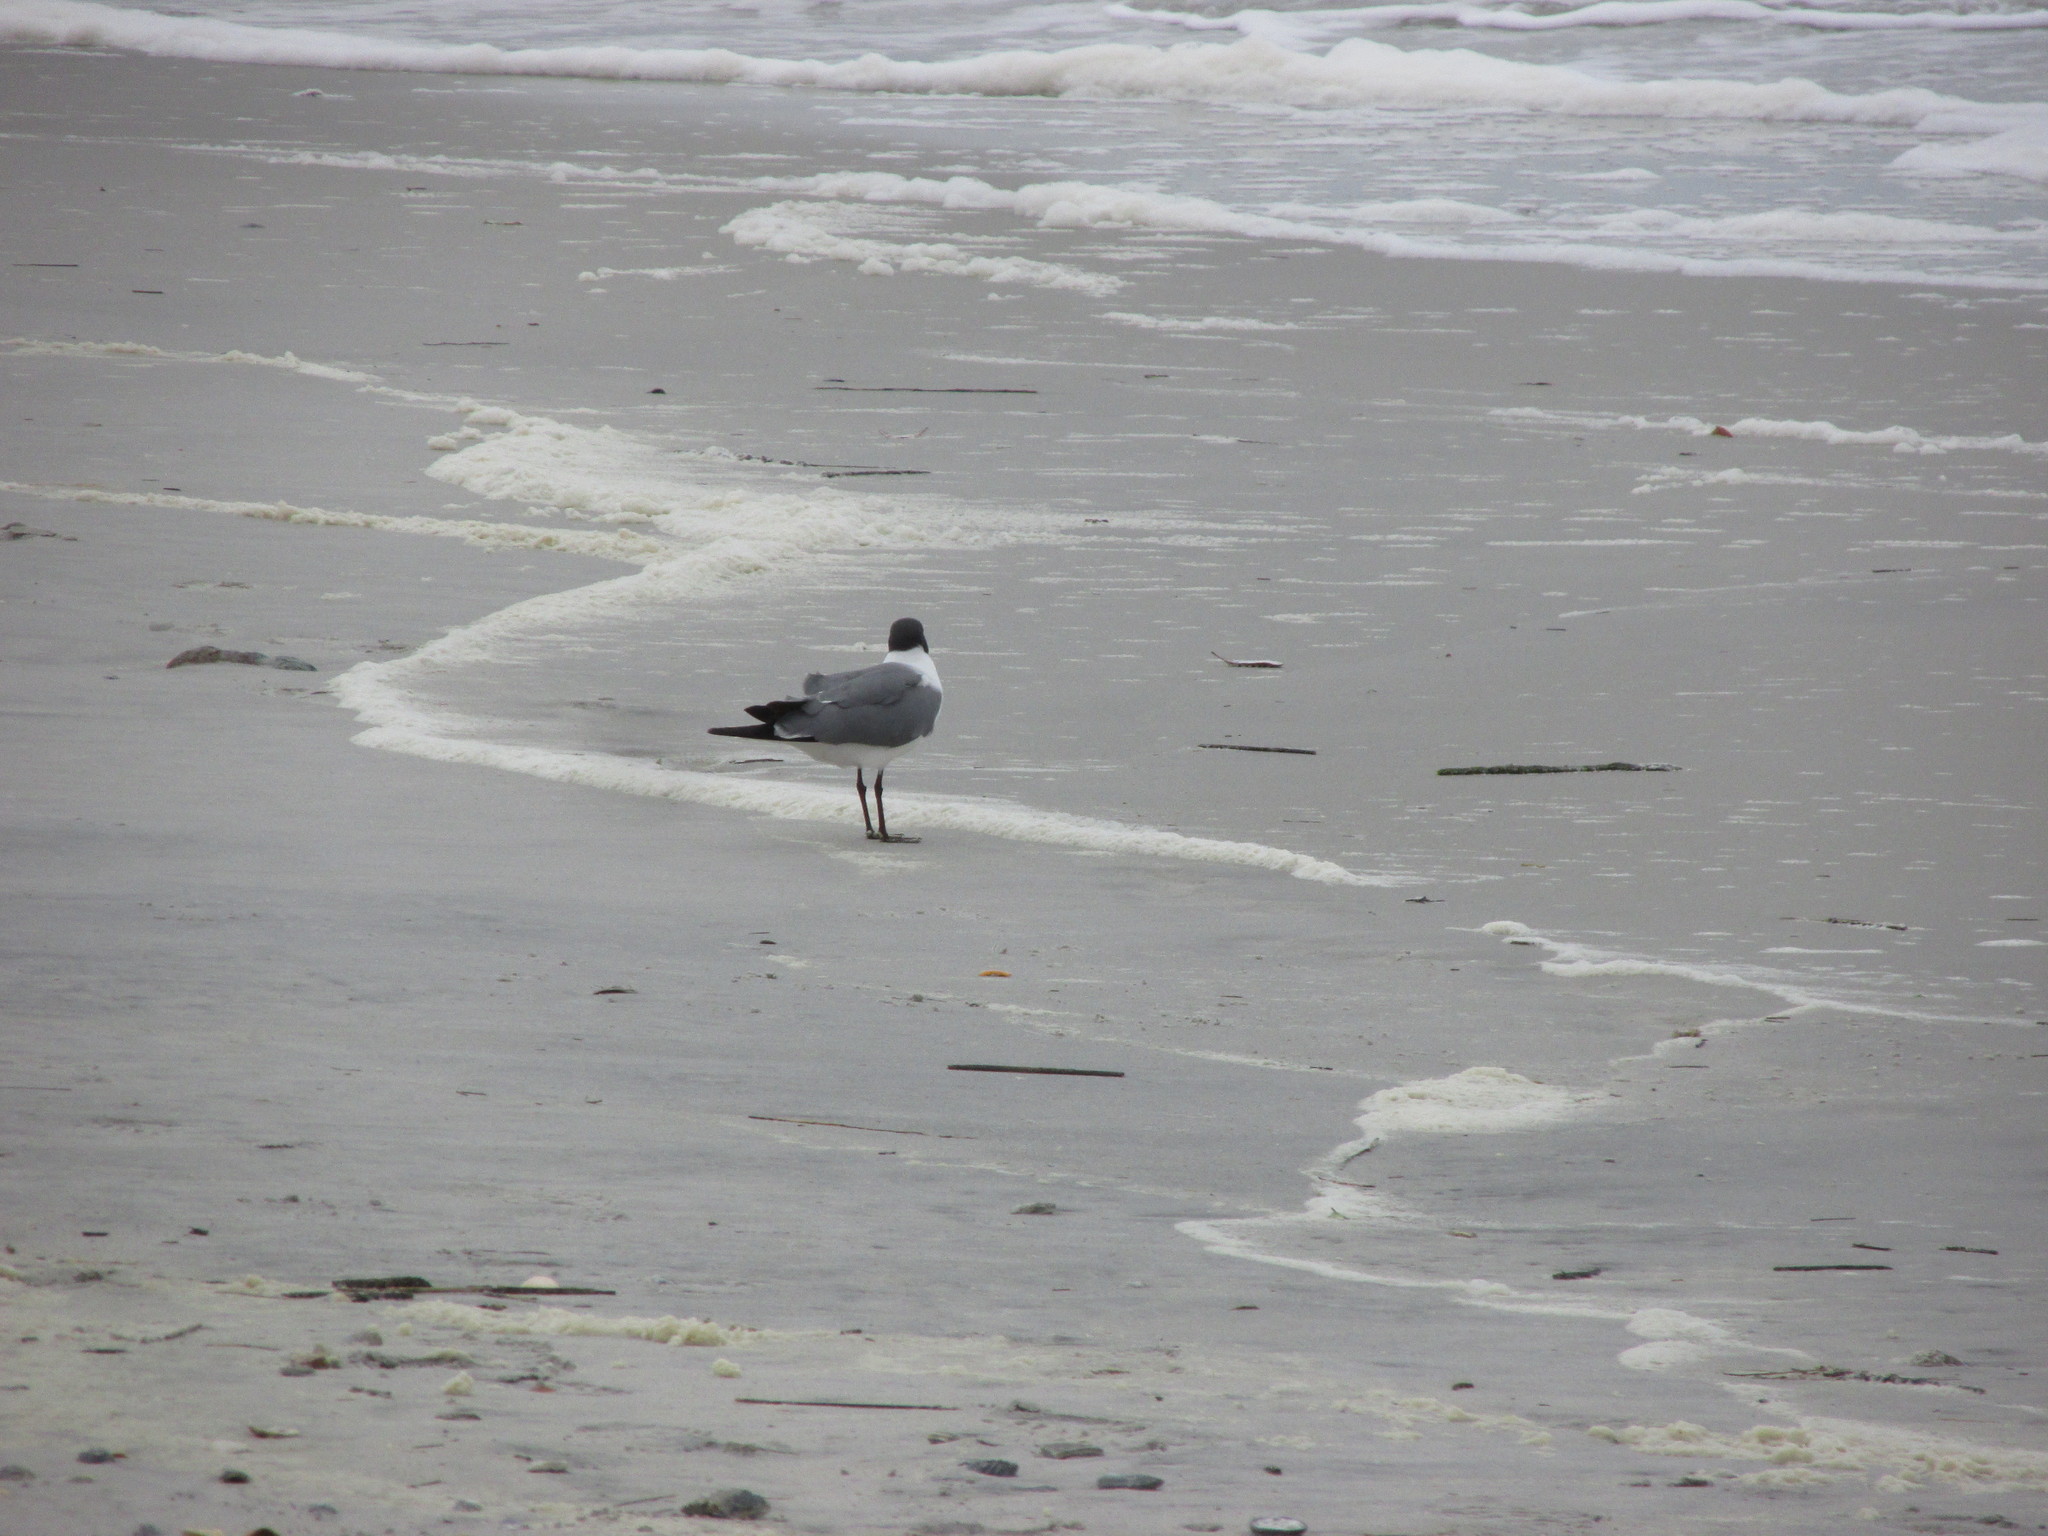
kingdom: Animalia
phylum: Chordata
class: Aves
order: Charadriiformes
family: Laridae
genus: Leucophaeus
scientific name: Leucophaeus atricilla
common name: Laughing gull
